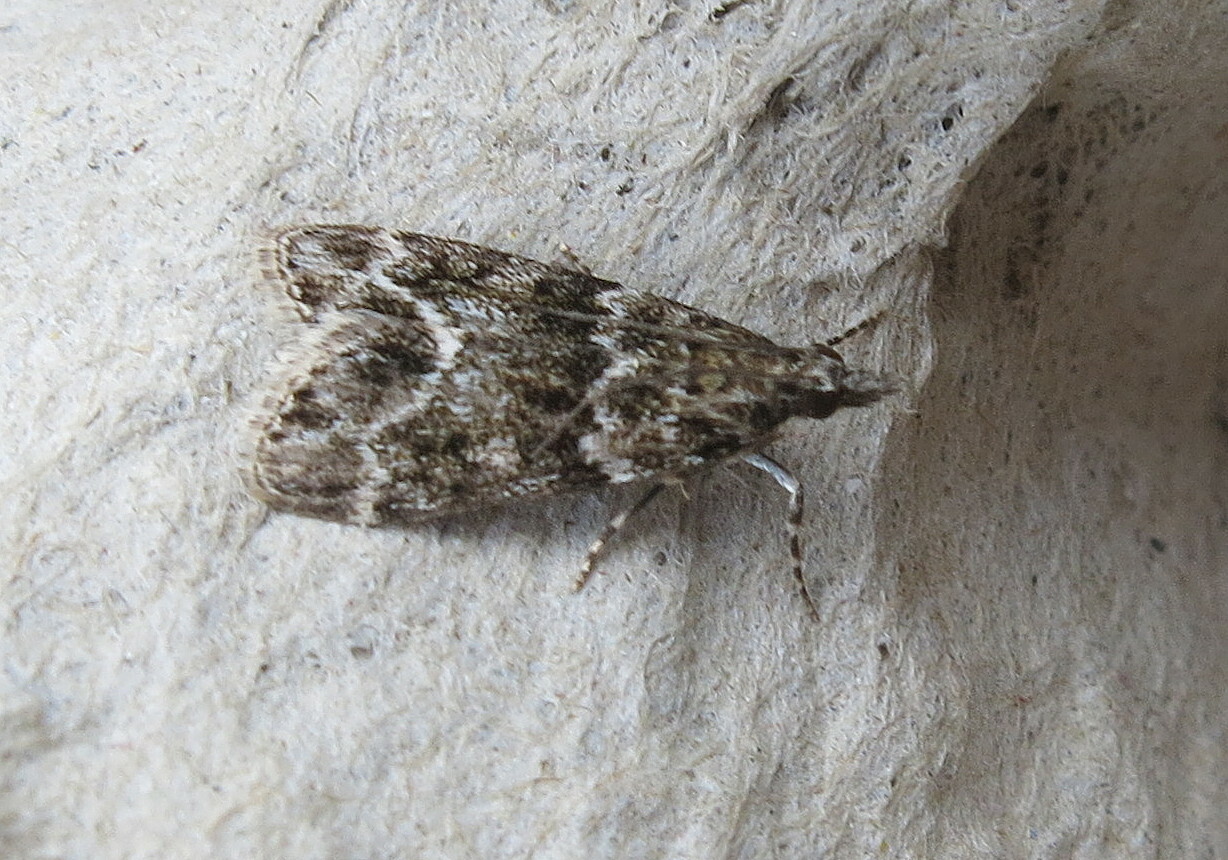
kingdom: Animalia
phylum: Arthropoda
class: Insecta
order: Lepidoptera
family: Crambidae
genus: Eudonia
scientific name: Eudonia mercurella
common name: Small grey
